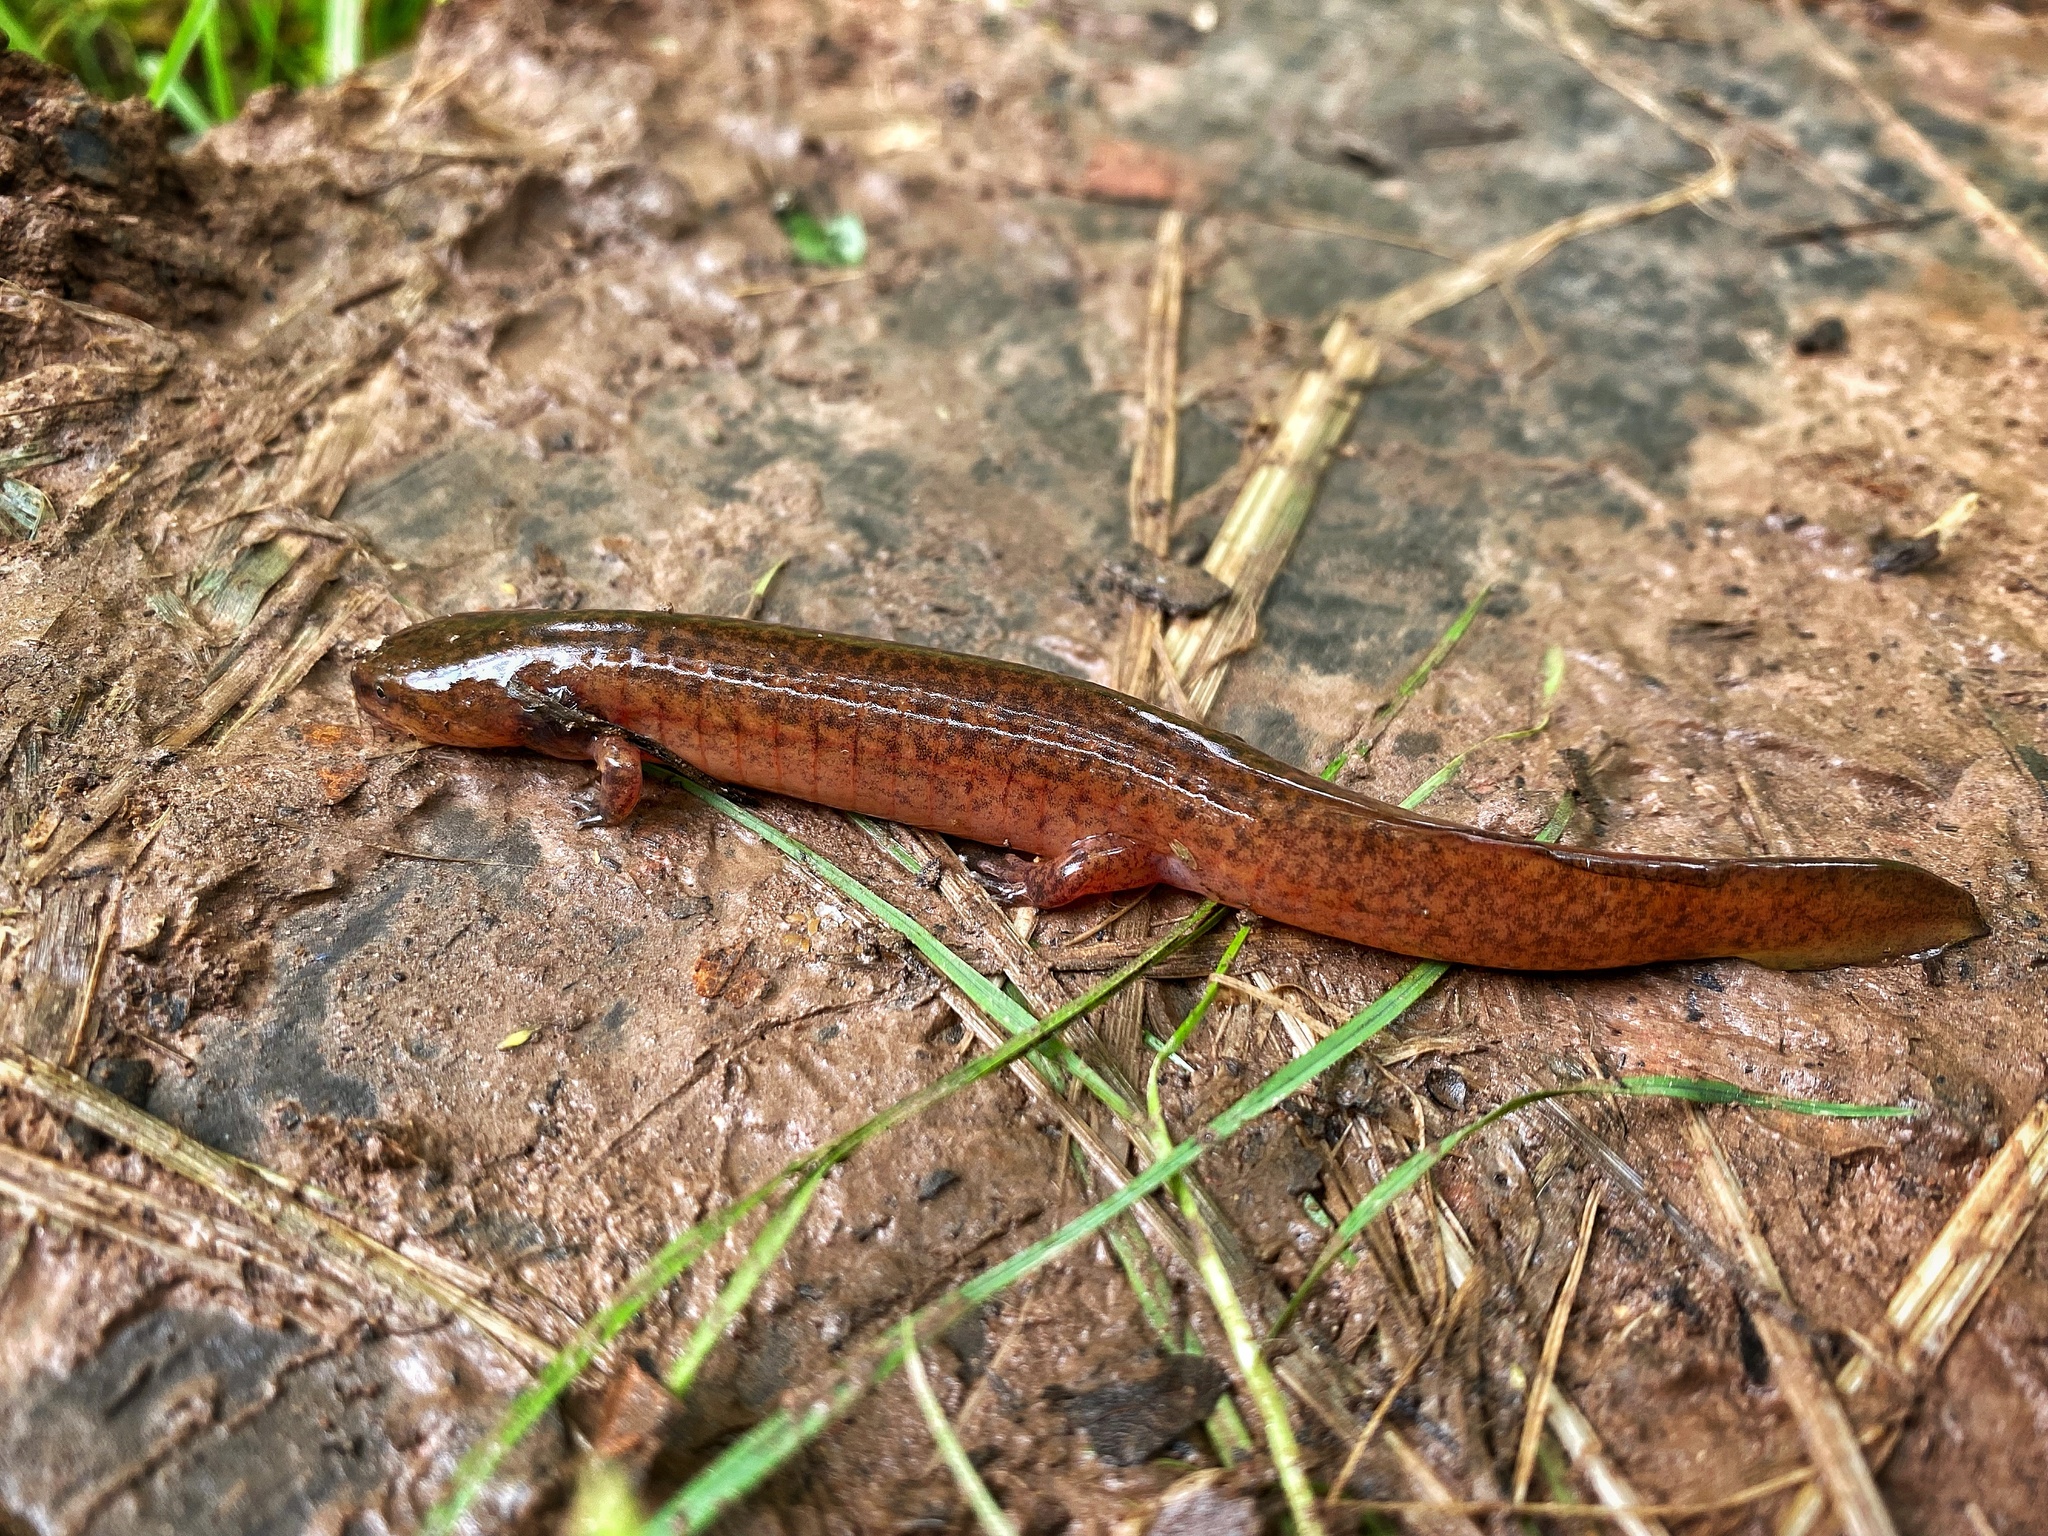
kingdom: Animalia
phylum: Chordata
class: Amphibia
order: Caudata
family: Plethodontidae
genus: Pseudotriton
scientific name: Pseudotriton ruber
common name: Red salamander
